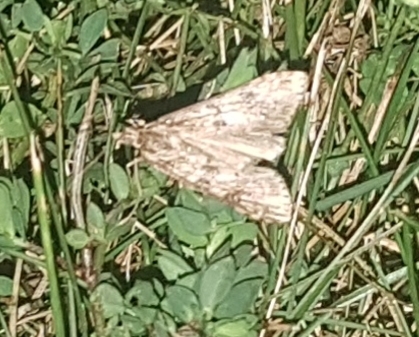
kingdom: Animalia
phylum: Arthropoda
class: Insecta
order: Lepidoptera
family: Crambidae
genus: Nomophila
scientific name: Nomophila nearctica
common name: American rush veneer
